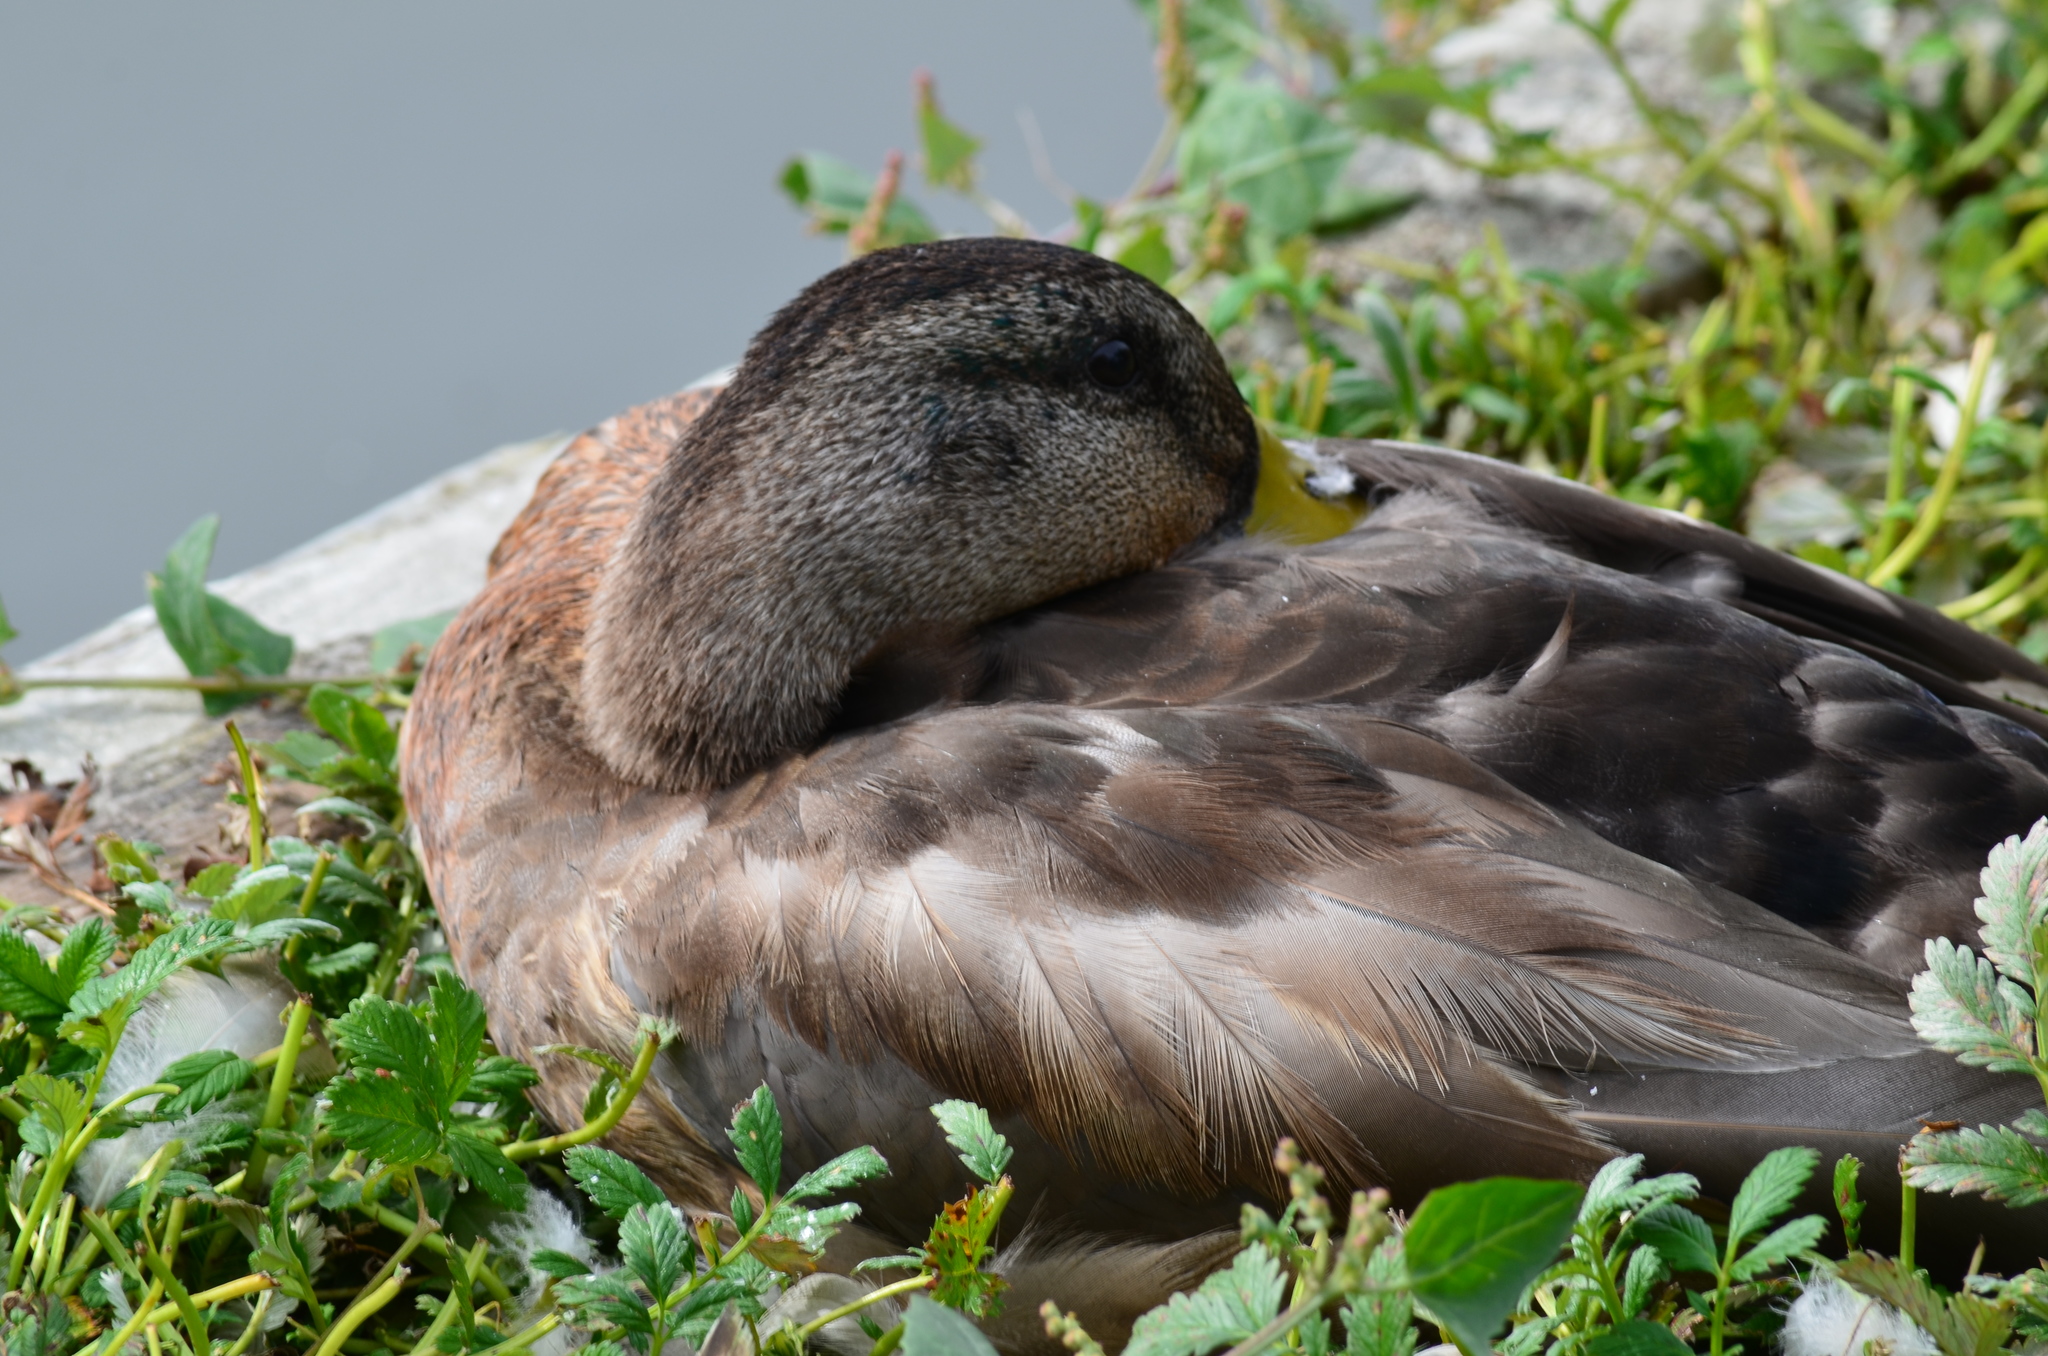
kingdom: Animalia
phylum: Chordata
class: Aves
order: Anseriformes
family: Anatidae
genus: Anas
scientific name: Anas platyrhynchos
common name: Mallard
